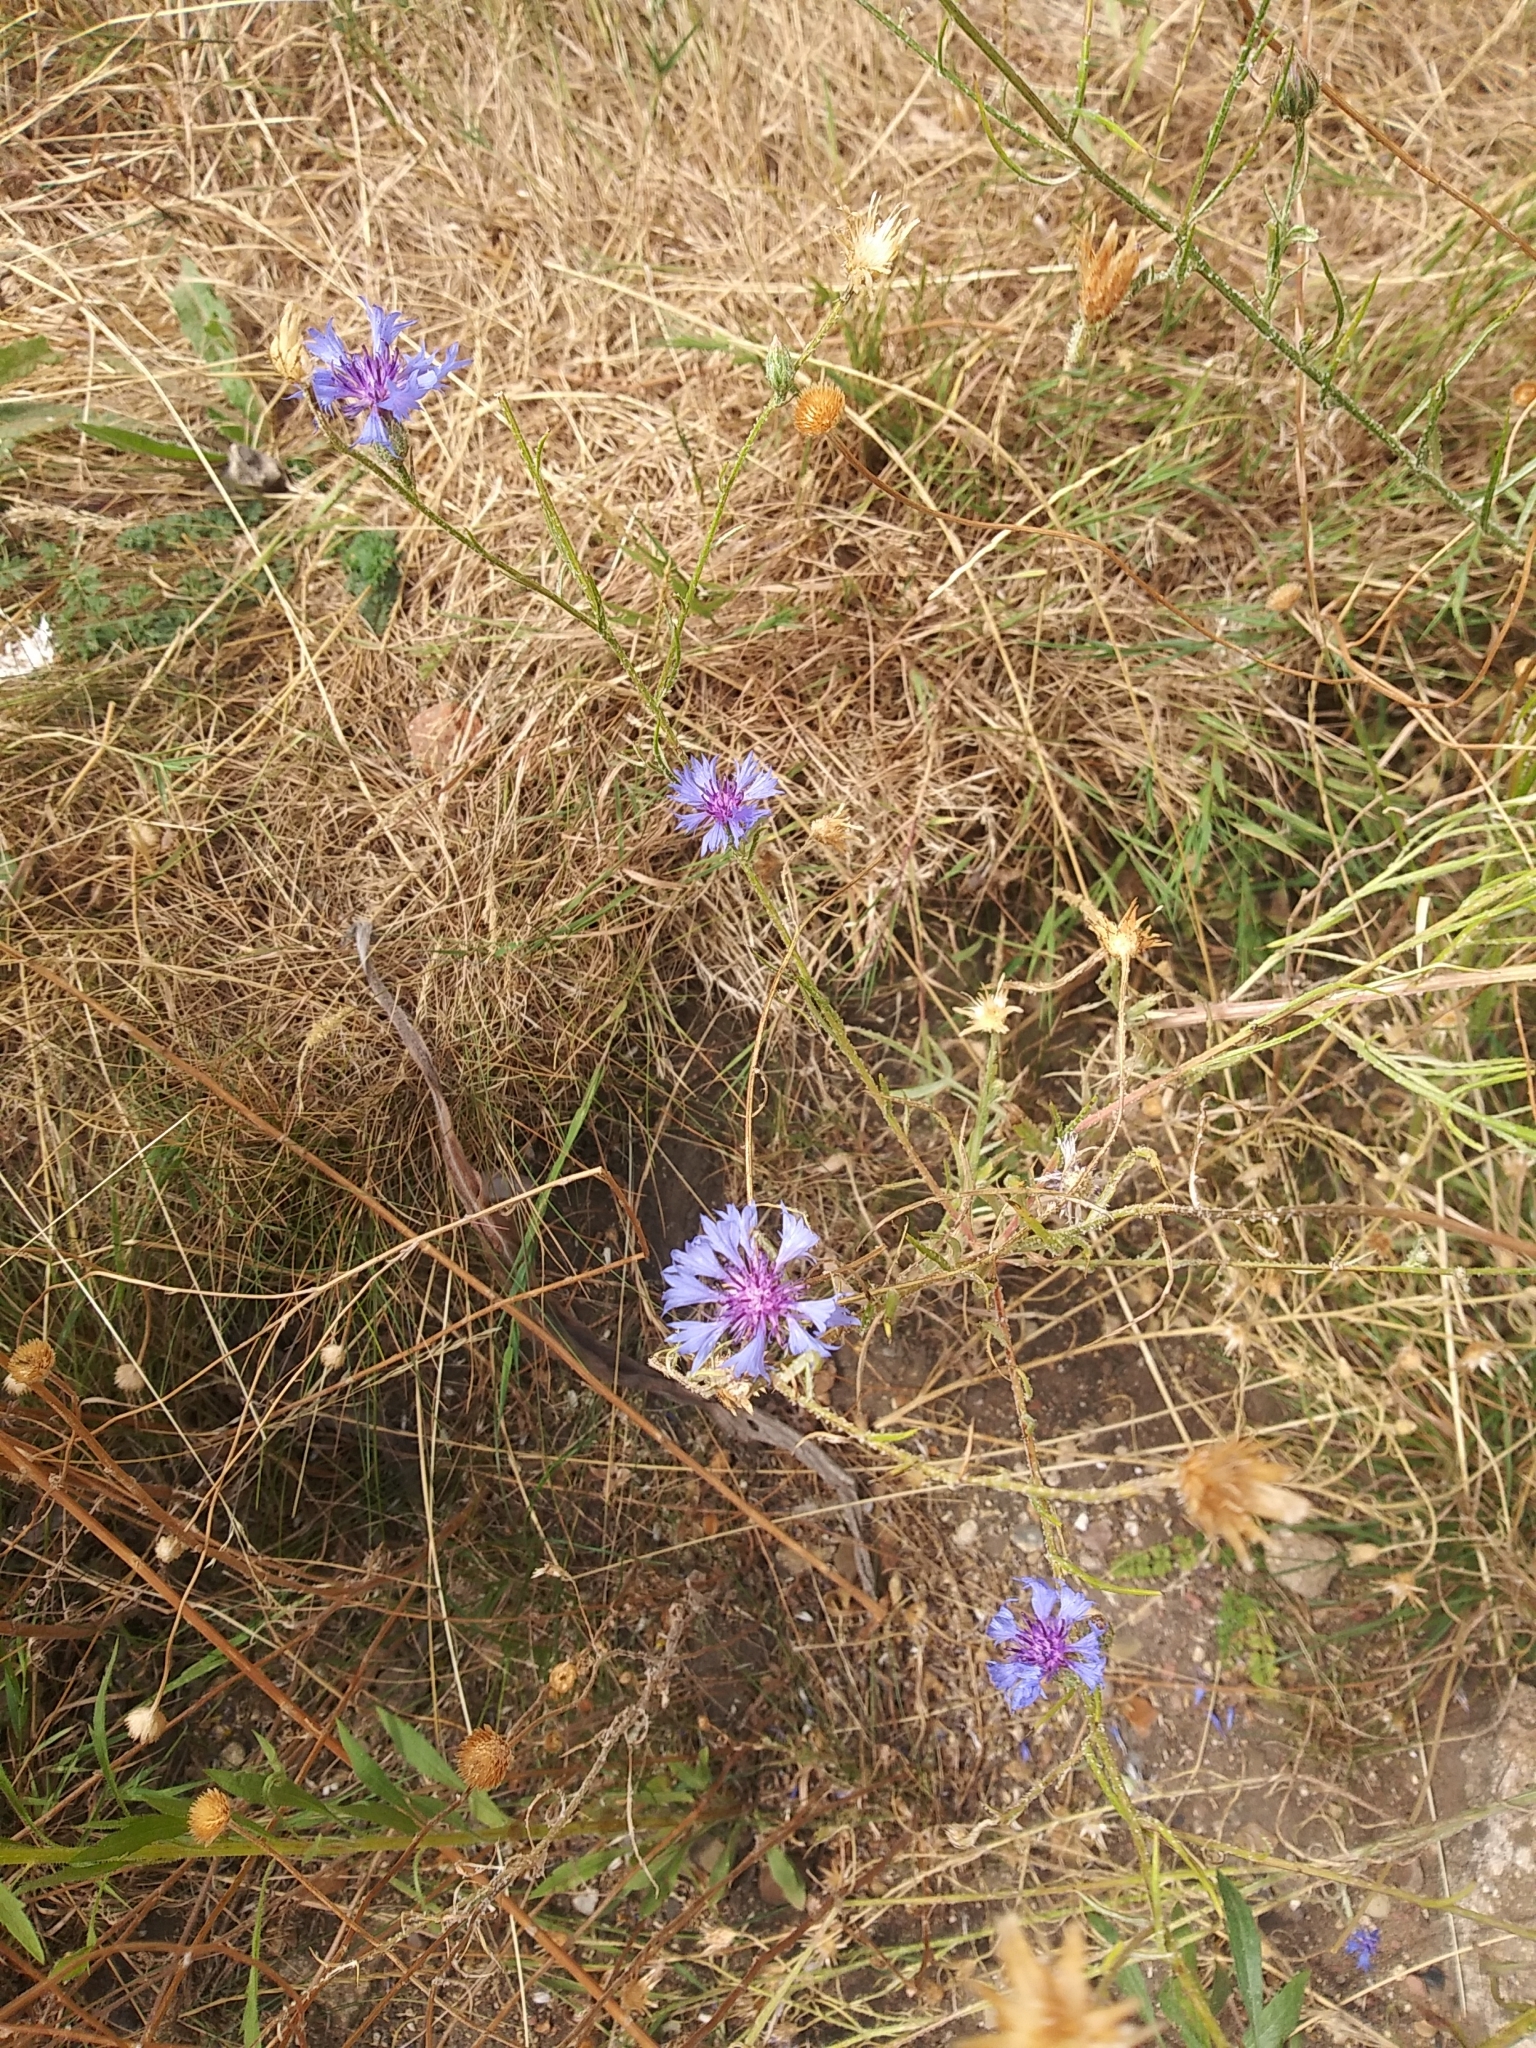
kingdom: Plantae
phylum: Tracheophyta
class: Magnoliopsida
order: Asterales
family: Asteraceae
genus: Centaurea
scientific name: Centaurea cyanus
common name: Cornflower
